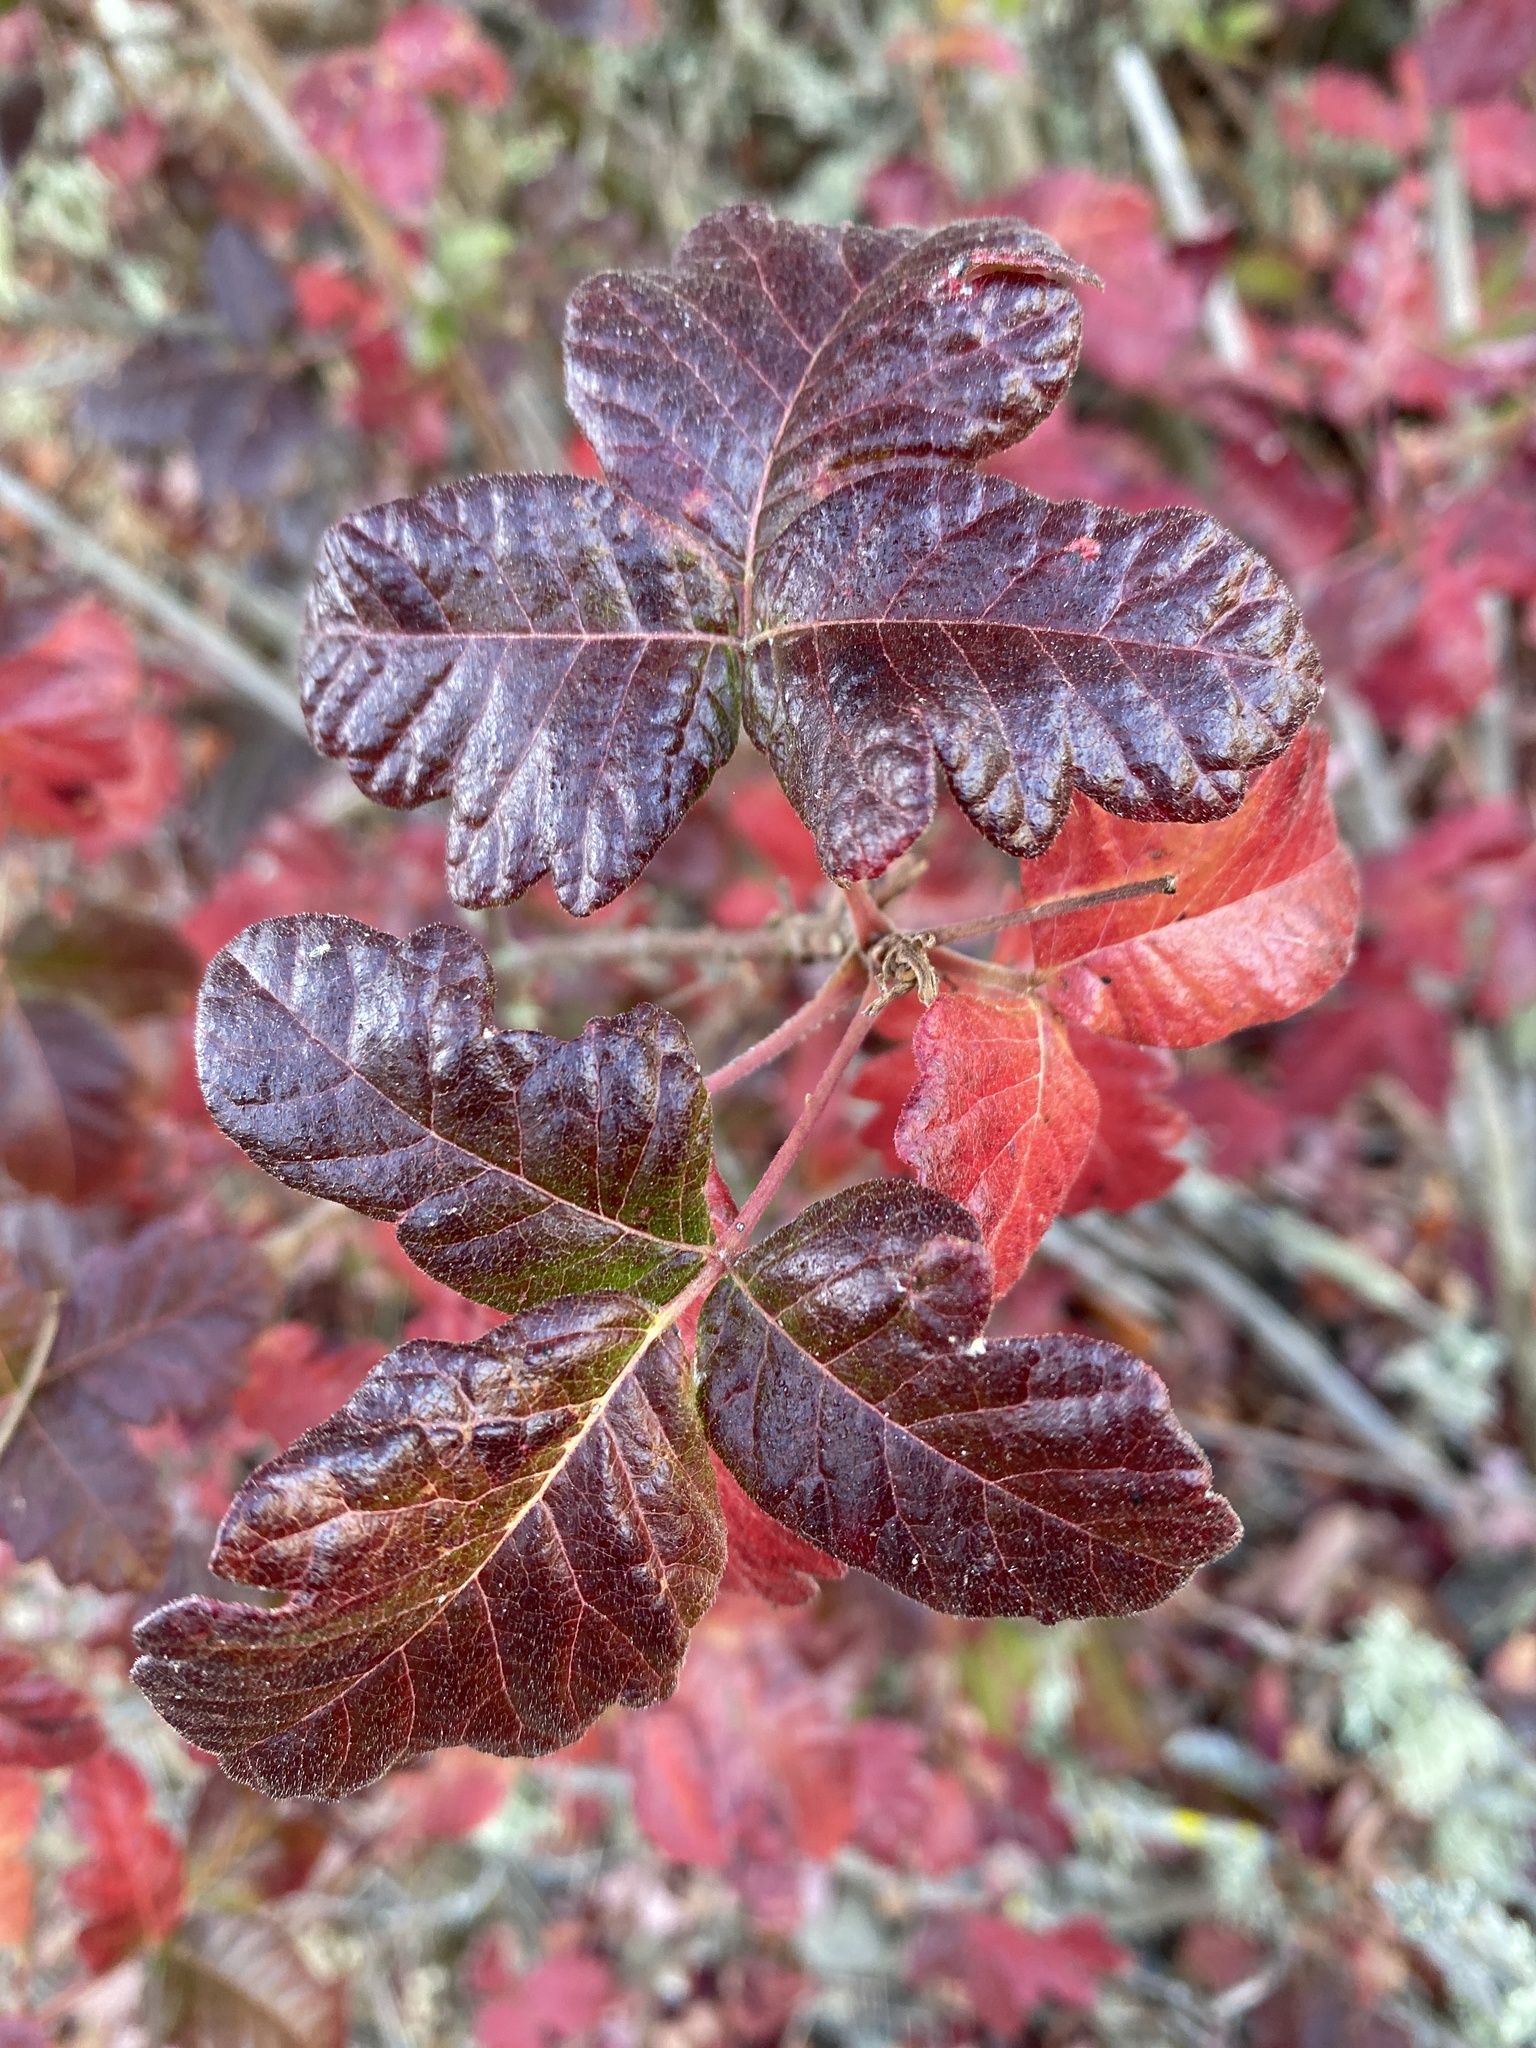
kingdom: Plantae
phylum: Tracheophyta
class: Magnoliopsida
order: Sapindales
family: Anacardiaceae
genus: Toxicodendron
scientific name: Toxicodendron diversilobum
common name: Pacific poison-oak
